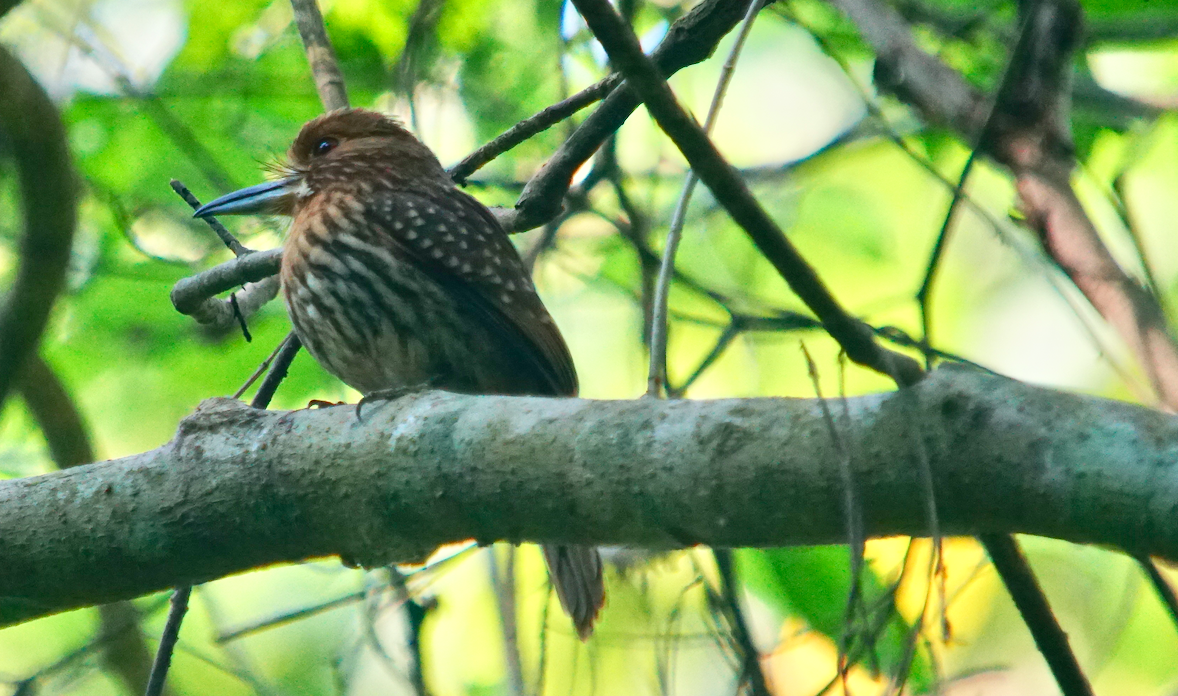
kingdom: Animalia
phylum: Chordata
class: Aves
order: Piciformes
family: Bucconidae
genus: Malacoptila
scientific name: Malacoptila panamensis
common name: White-whiskered puffbird
